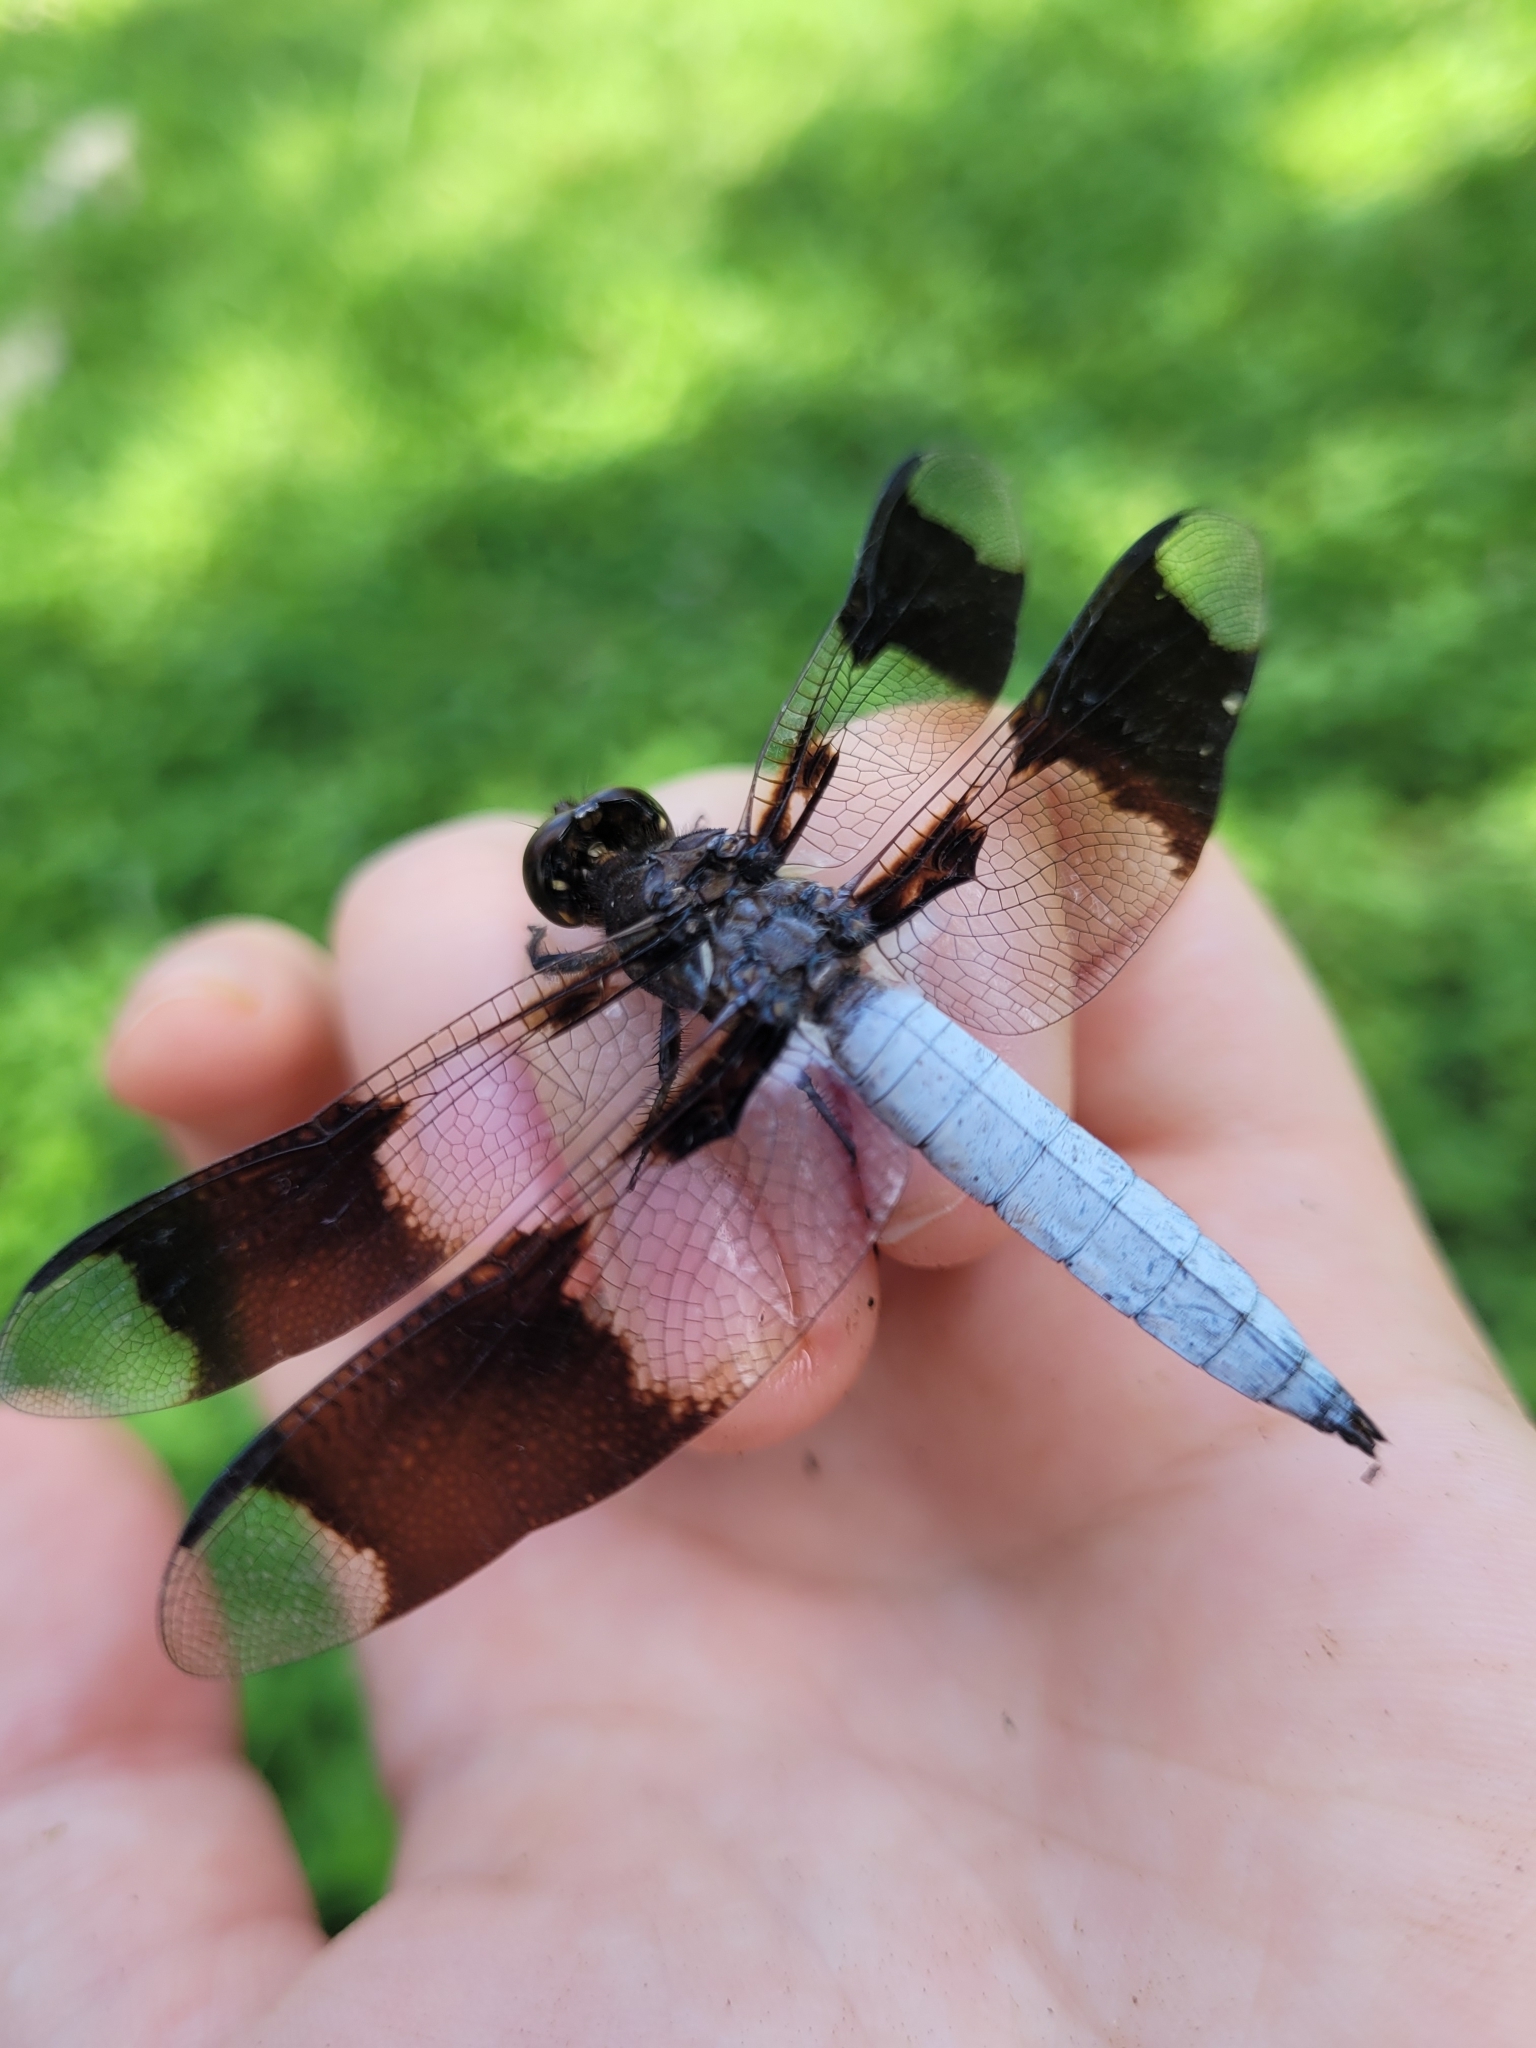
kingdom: Animalia
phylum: Arthropoda
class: Insecta
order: Odonata
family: Libellulidae
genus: Plathemis
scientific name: Plathemis lydia
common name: Common whitetail
